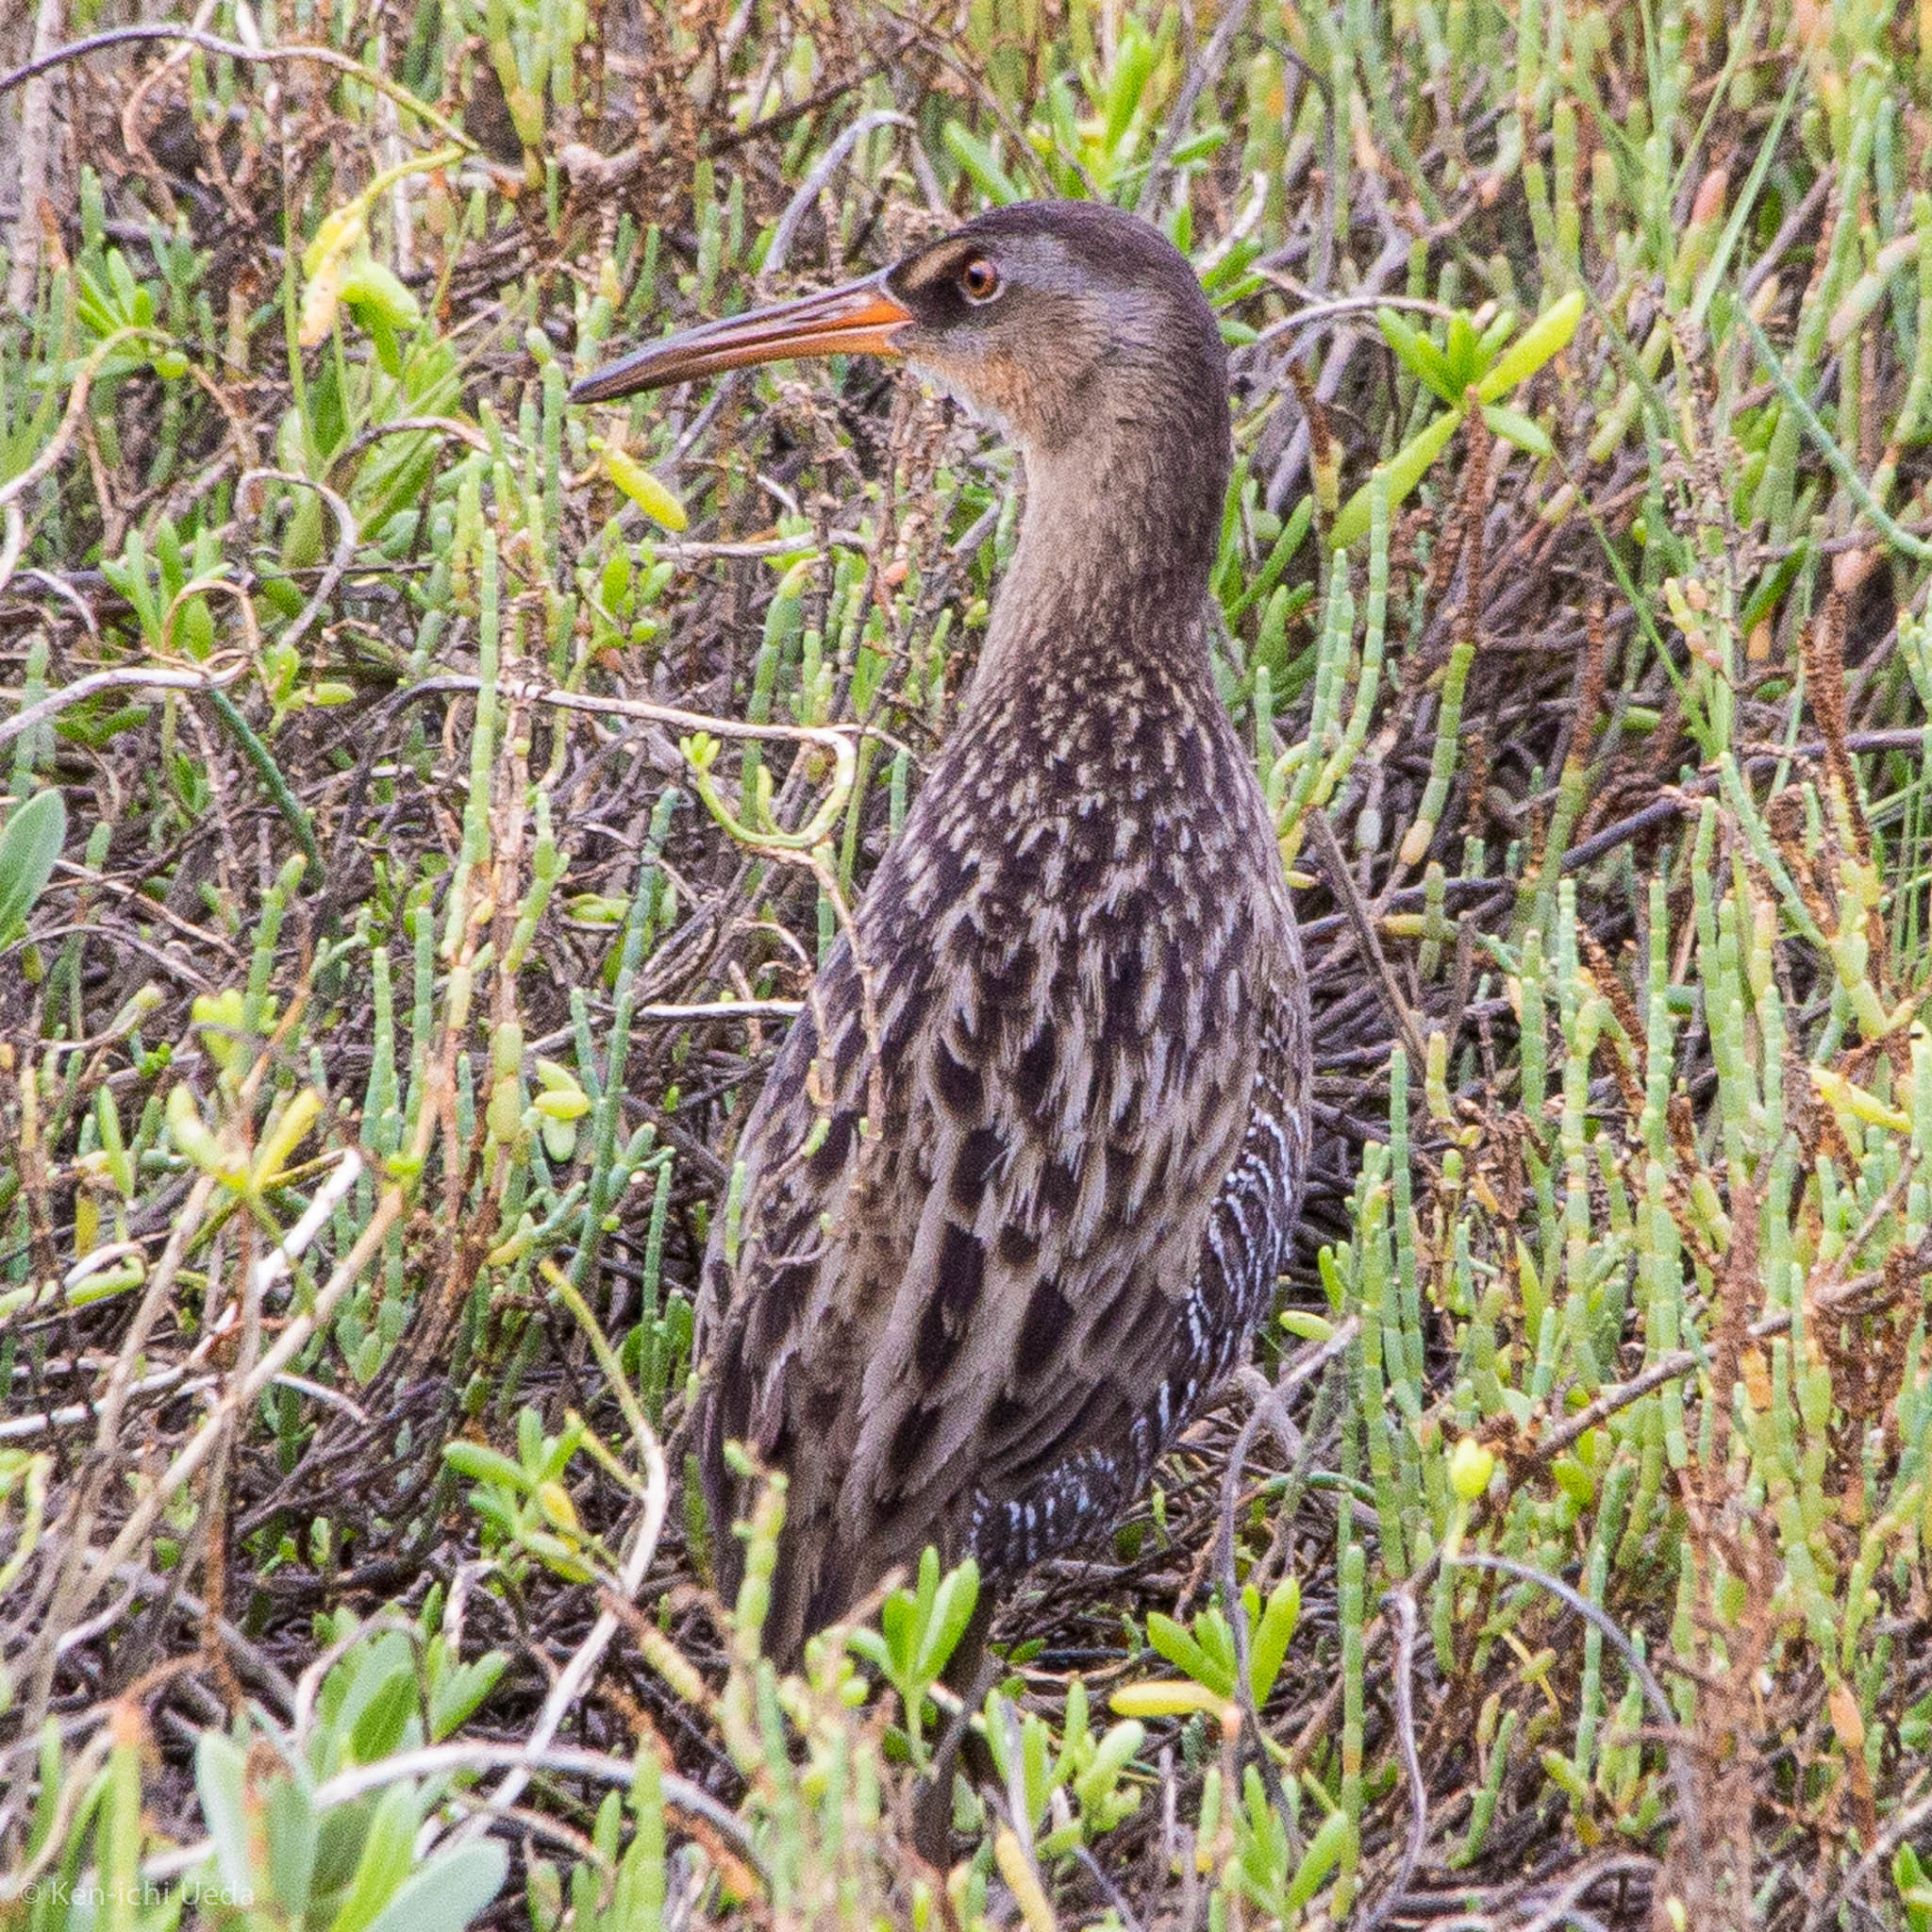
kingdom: Animalia
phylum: Chordata
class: Aves
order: Gruiformes
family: Rallidae
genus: Rallus
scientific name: Rallus crepitans
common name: Clapper rail
